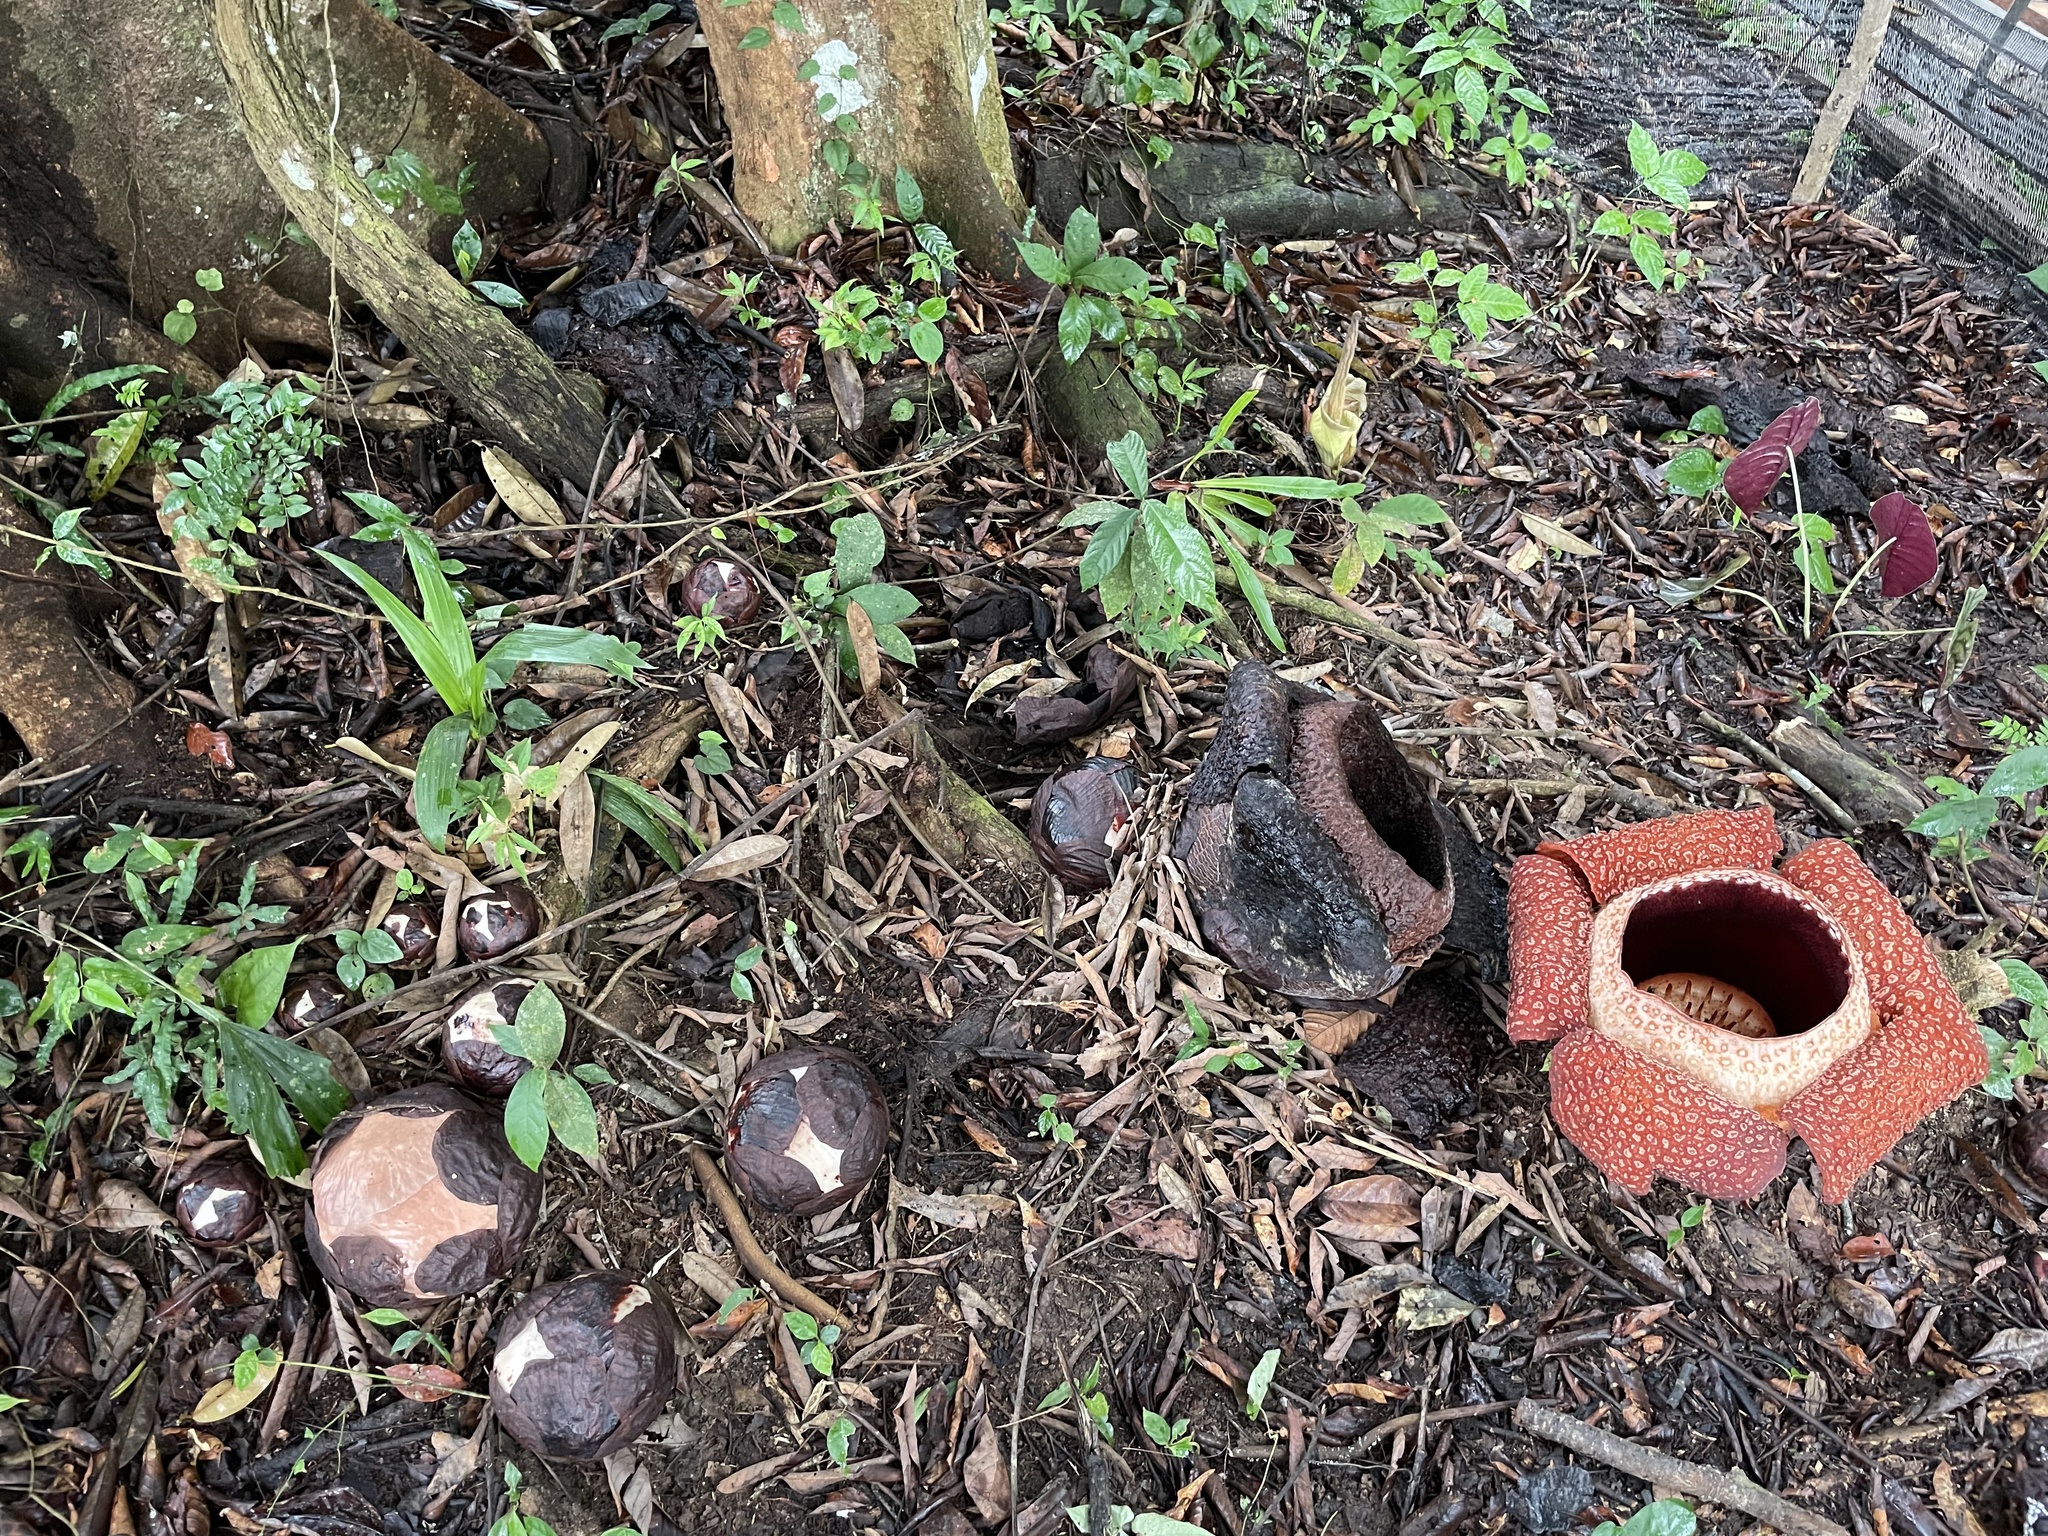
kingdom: Plantae
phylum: Tracheophyta
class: Magnoliopsida
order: Malpighiales
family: Rafflesiaceae
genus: Rafflesia
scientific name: Rafflesia keithii
